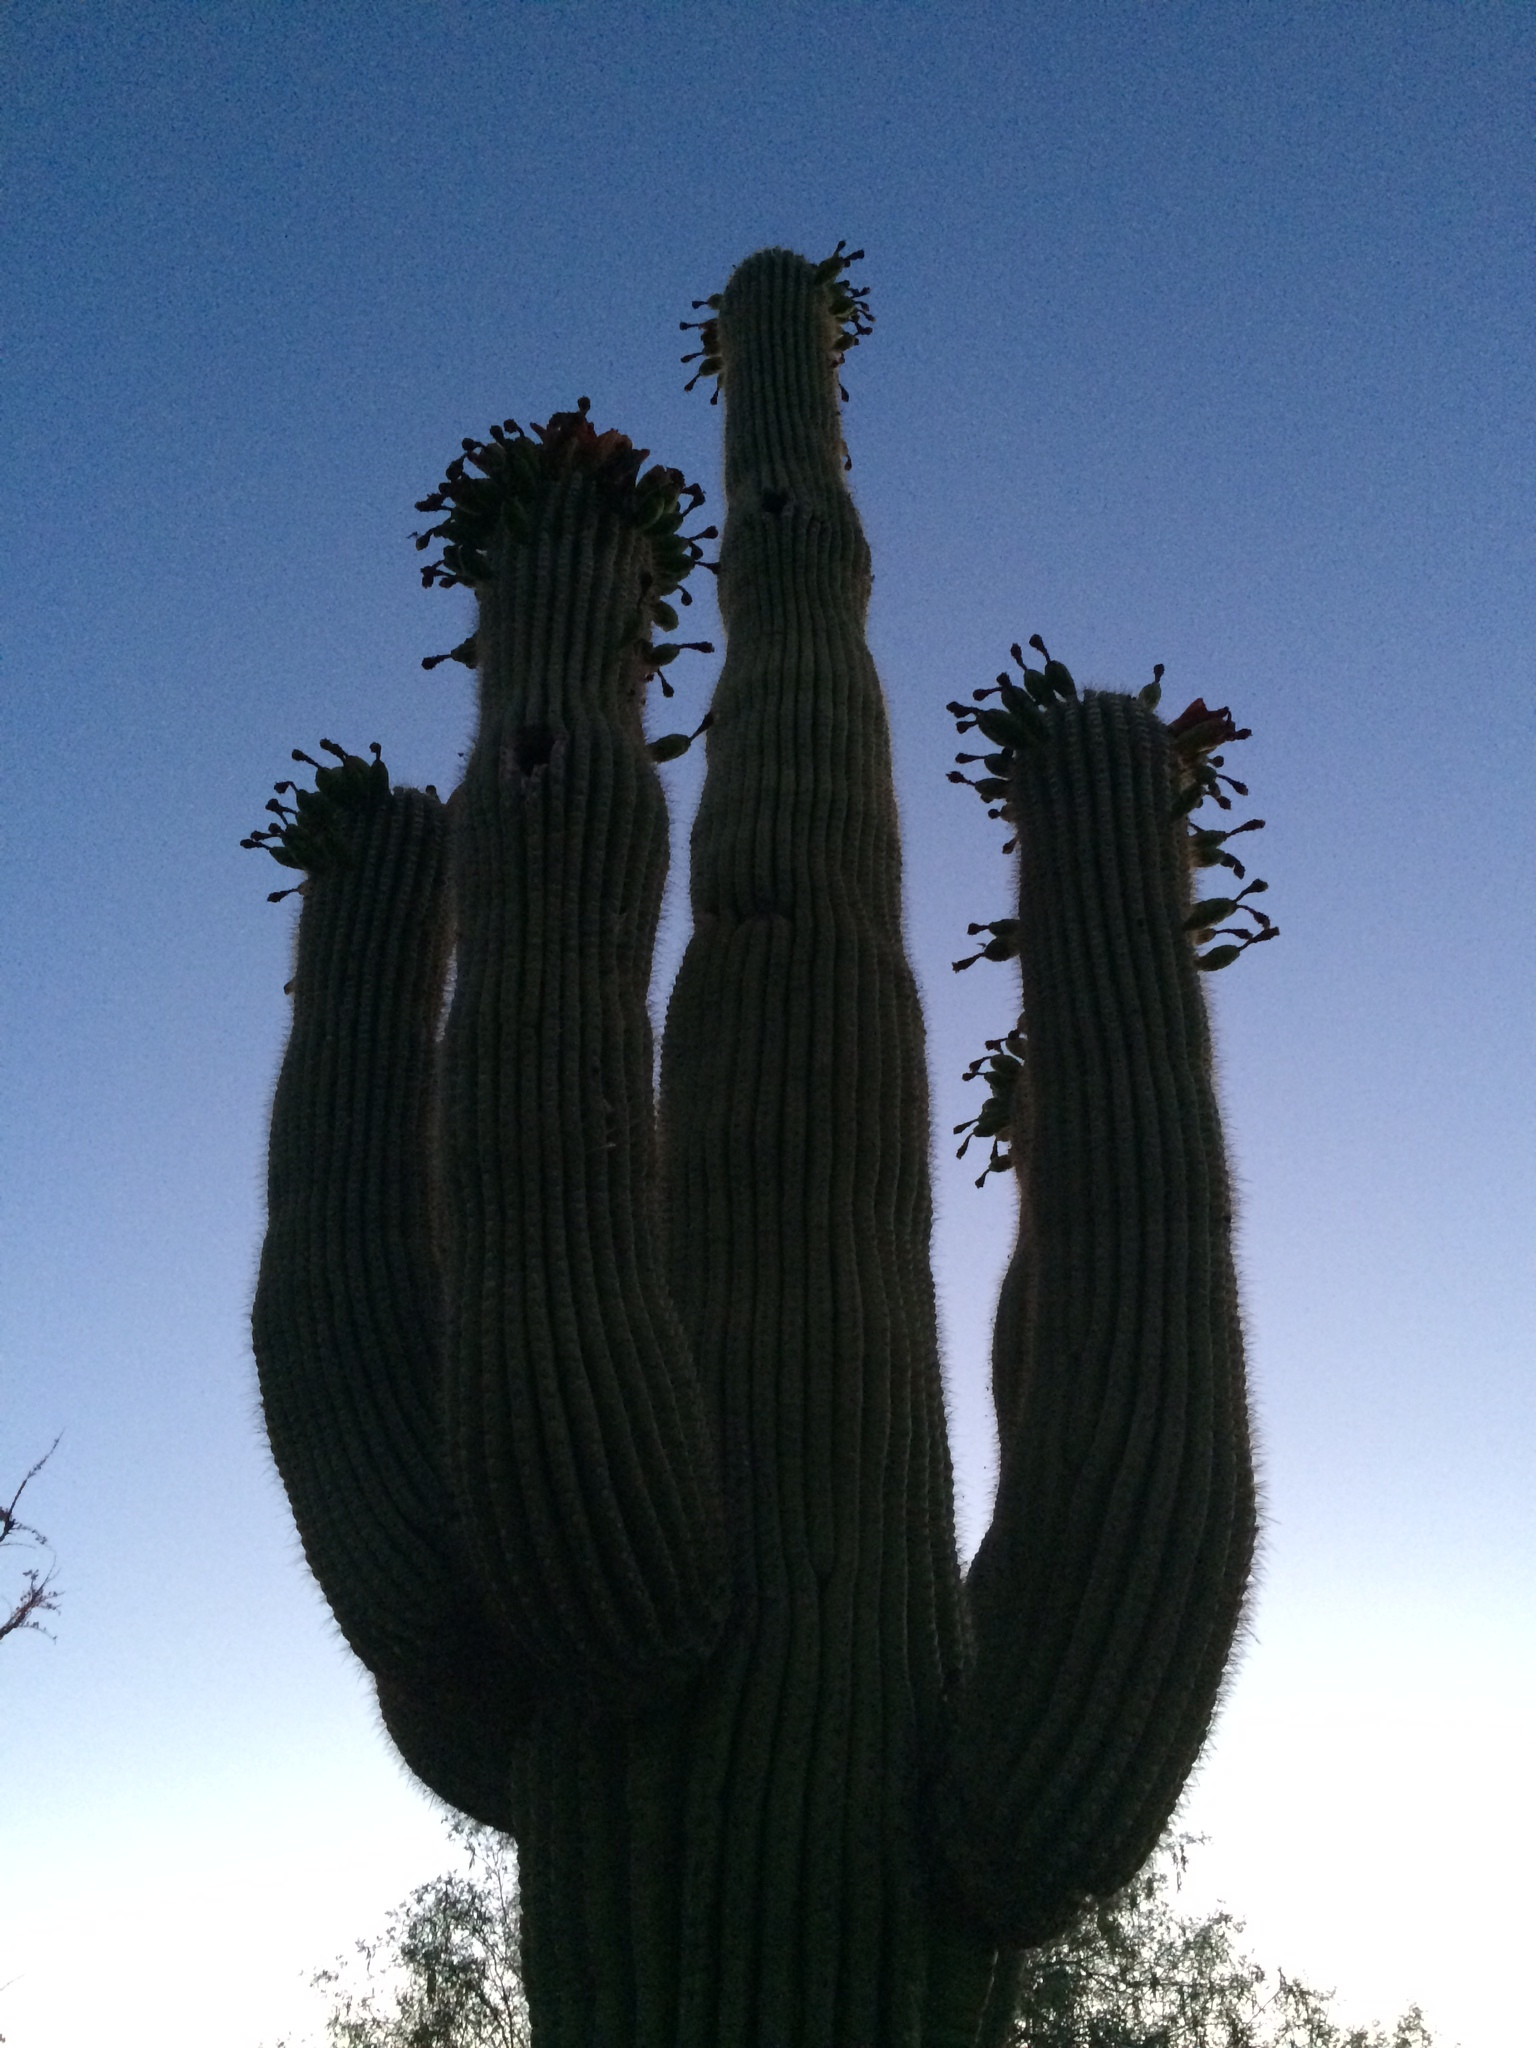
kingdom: Plantae
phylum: Tracheophyta
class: Magnoliopsida
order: Caryophyllales
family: Cactaceae
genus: Carnegiea
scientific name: Carnegiea gigantea
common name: Saguaro
